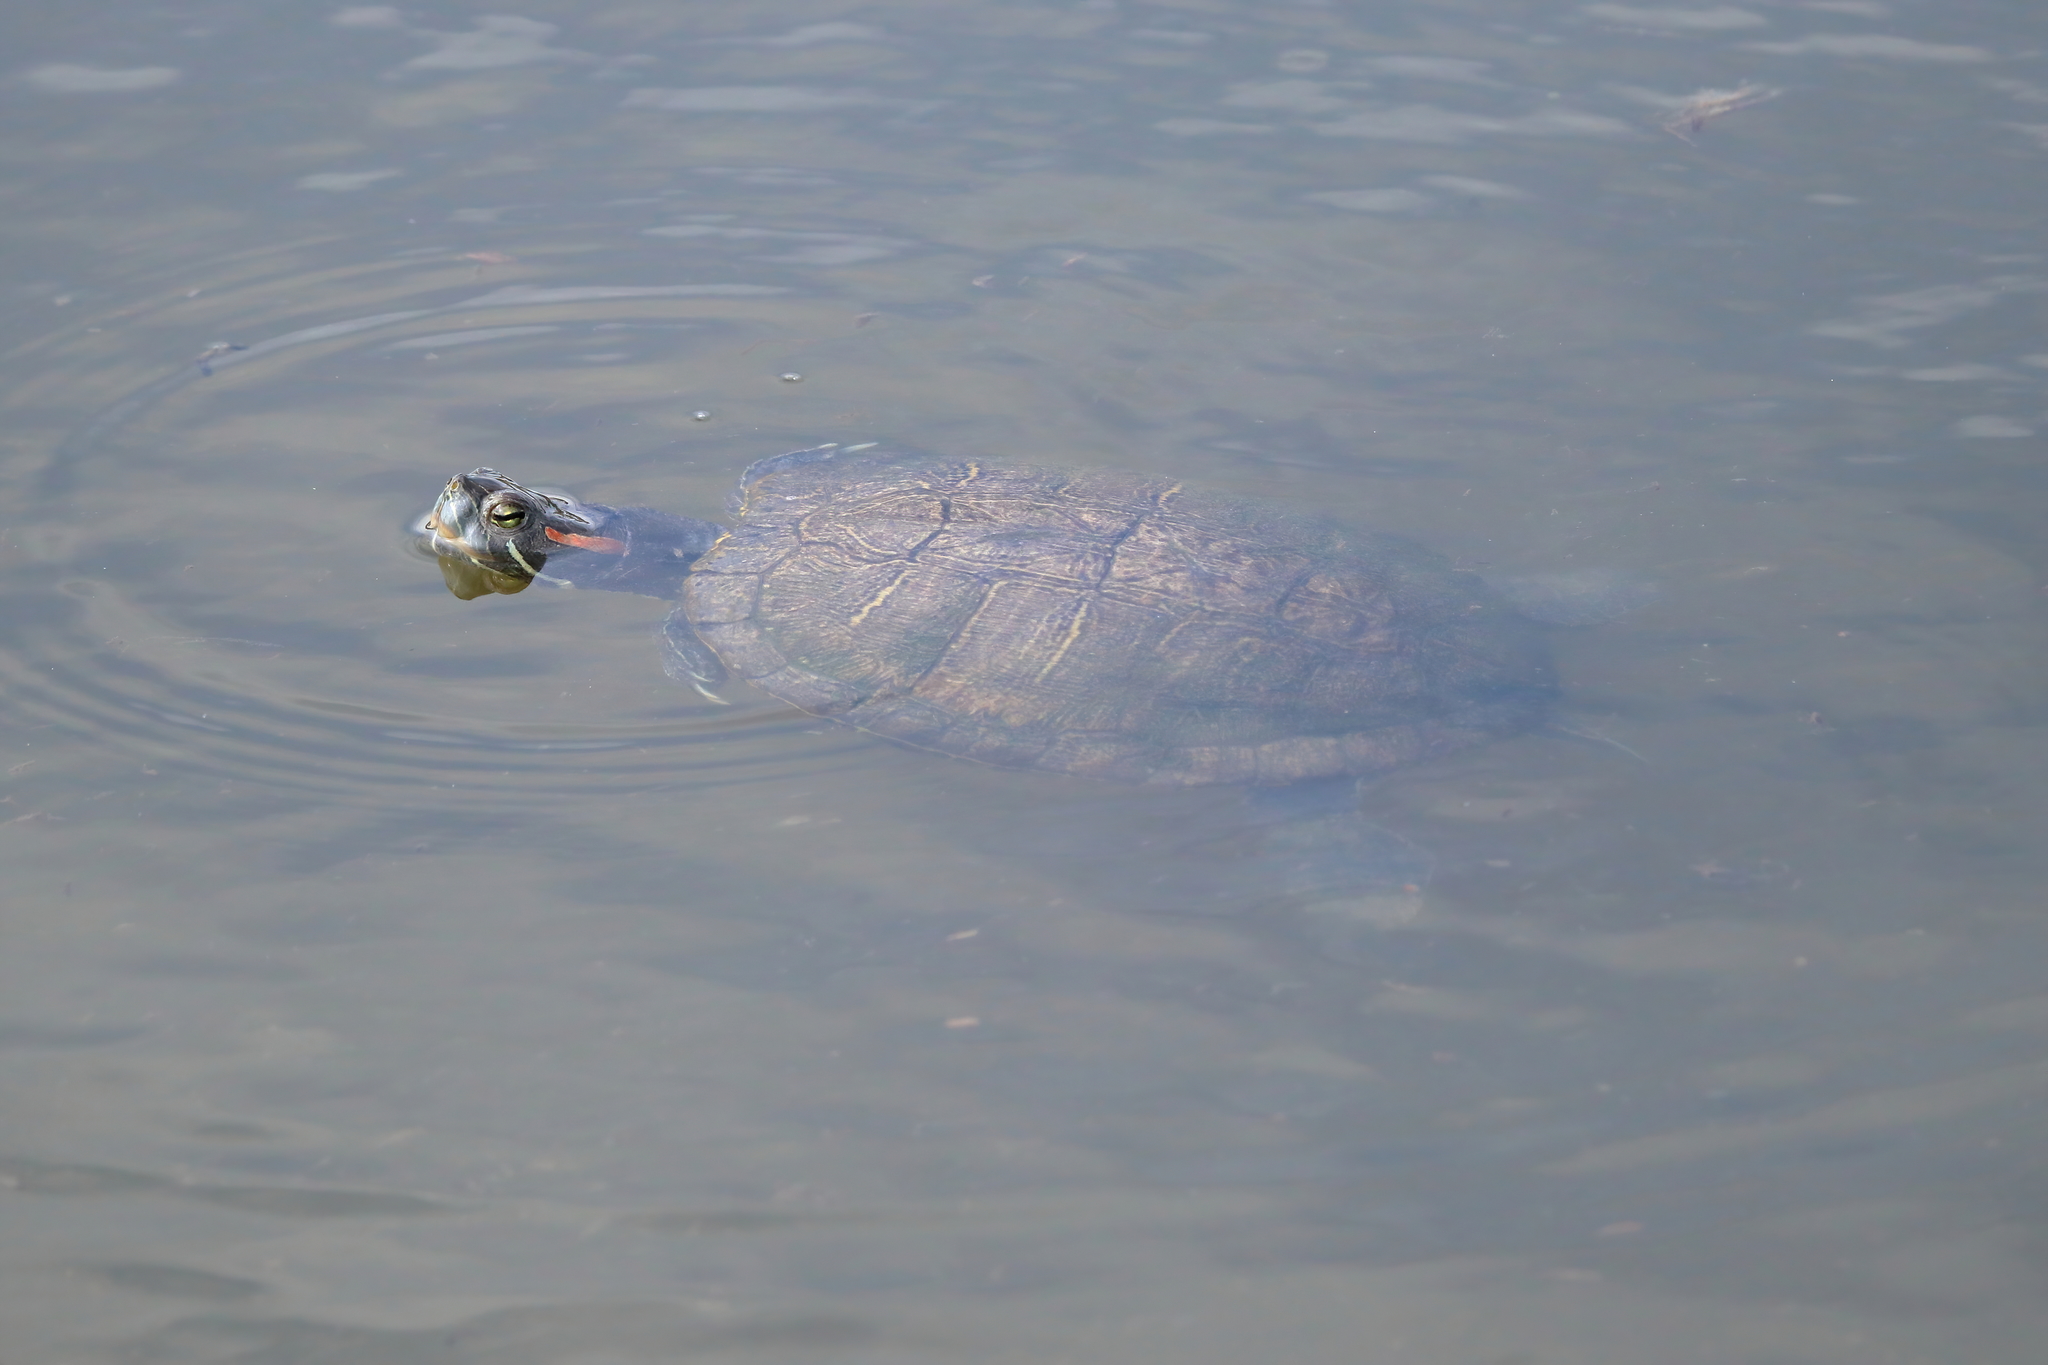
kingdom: Animalia
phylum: Chordata
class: Testudines
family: Emydidae
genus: Trachemys
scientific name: Trachemys scripta
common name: Slider
